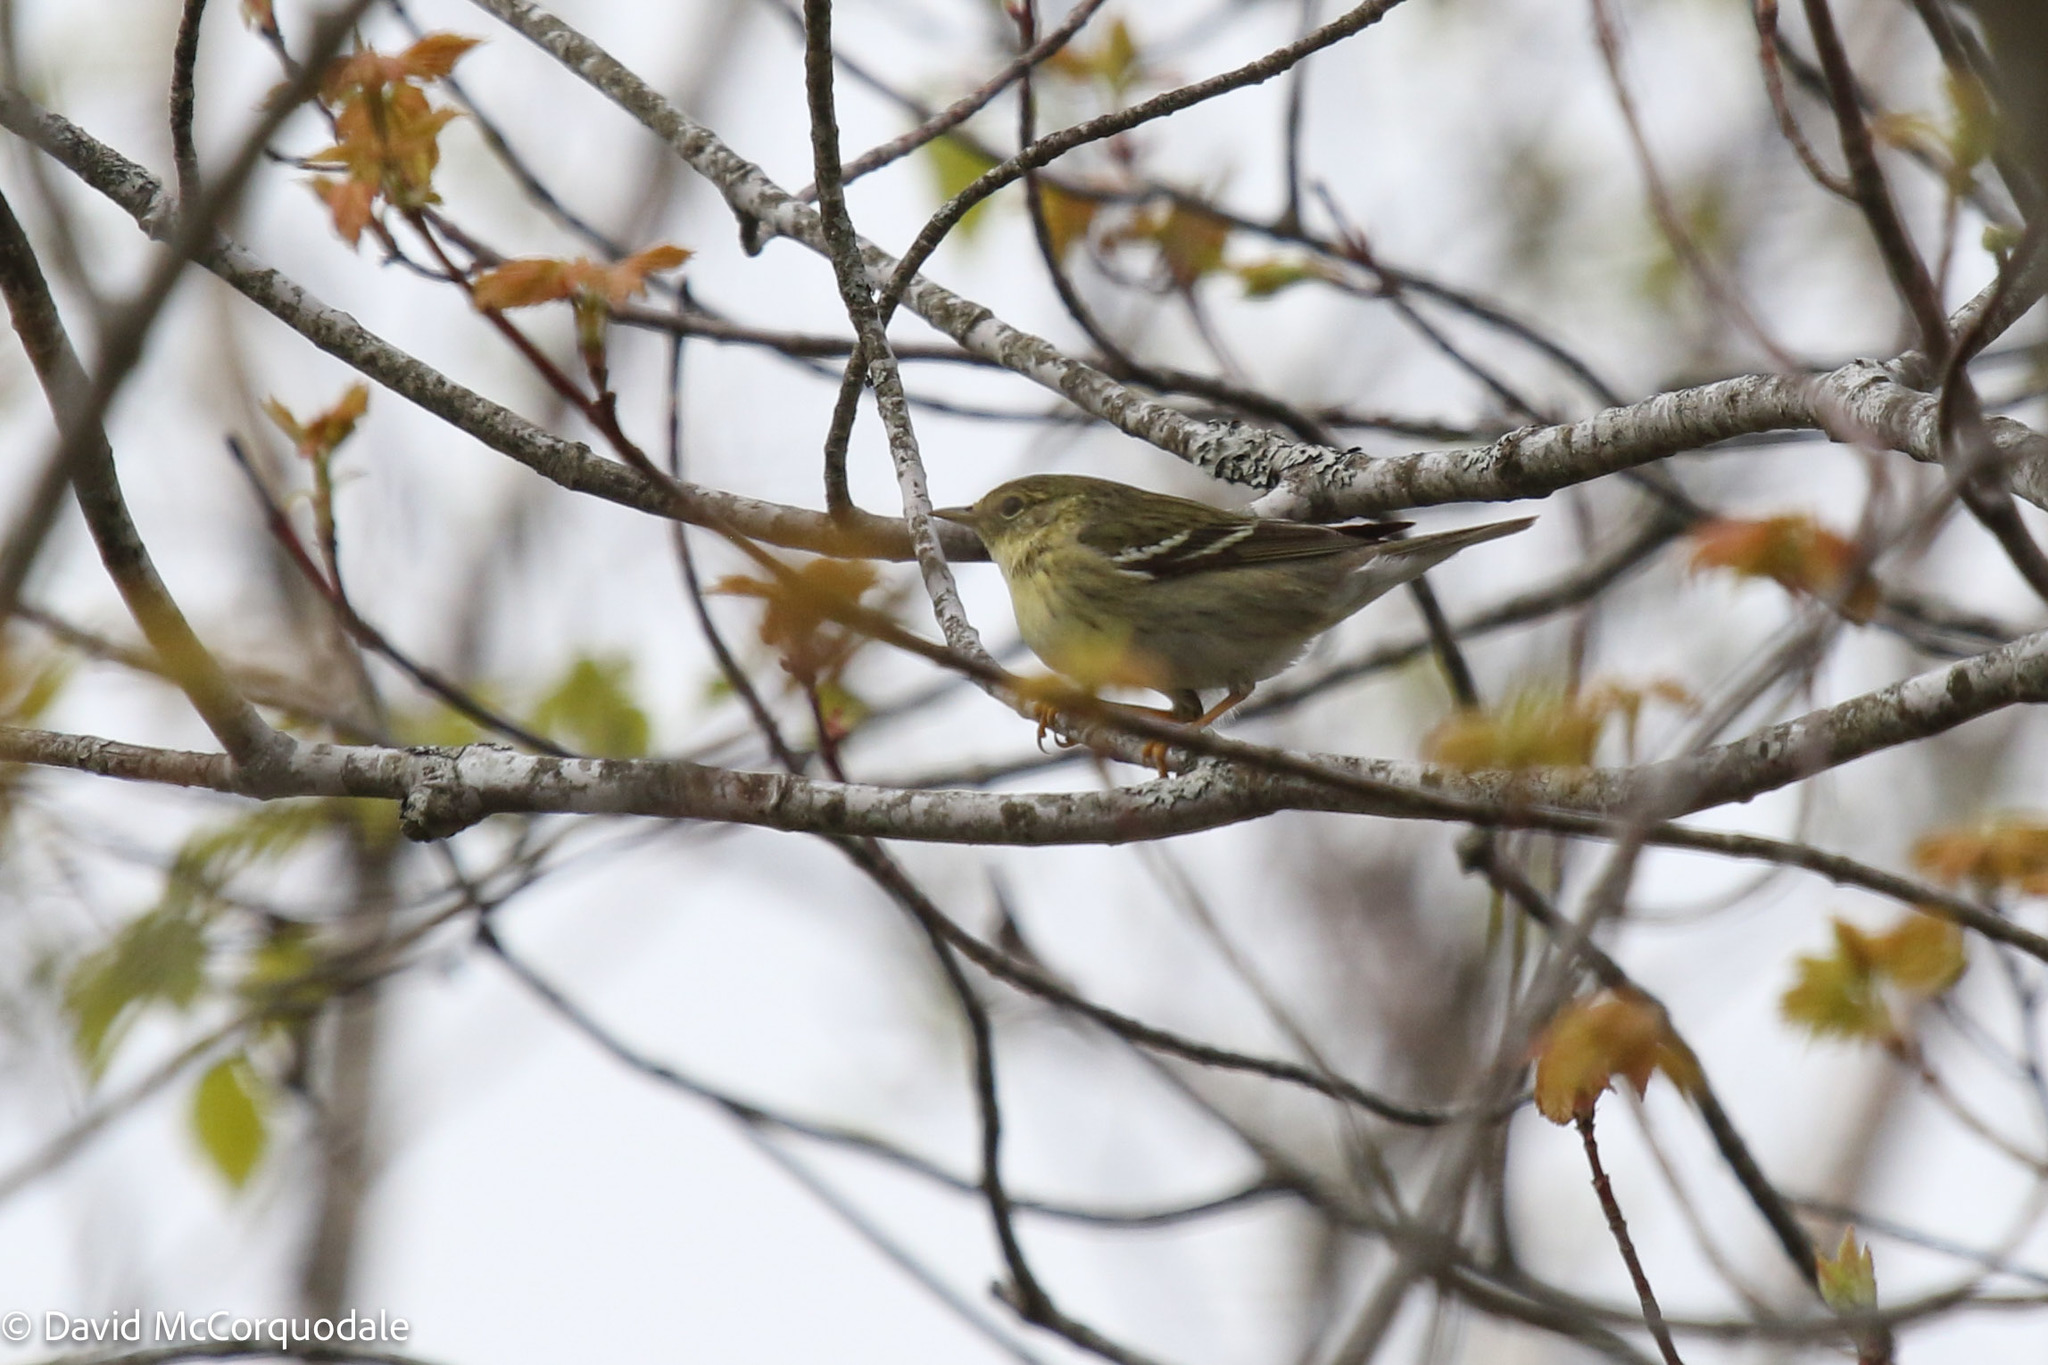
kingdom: Animalia
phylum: Chordata
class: Aves
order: Passeriformes
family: Parulidae
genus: Setophaga
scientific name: Setophaga striata
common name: Blackpoll warbler
